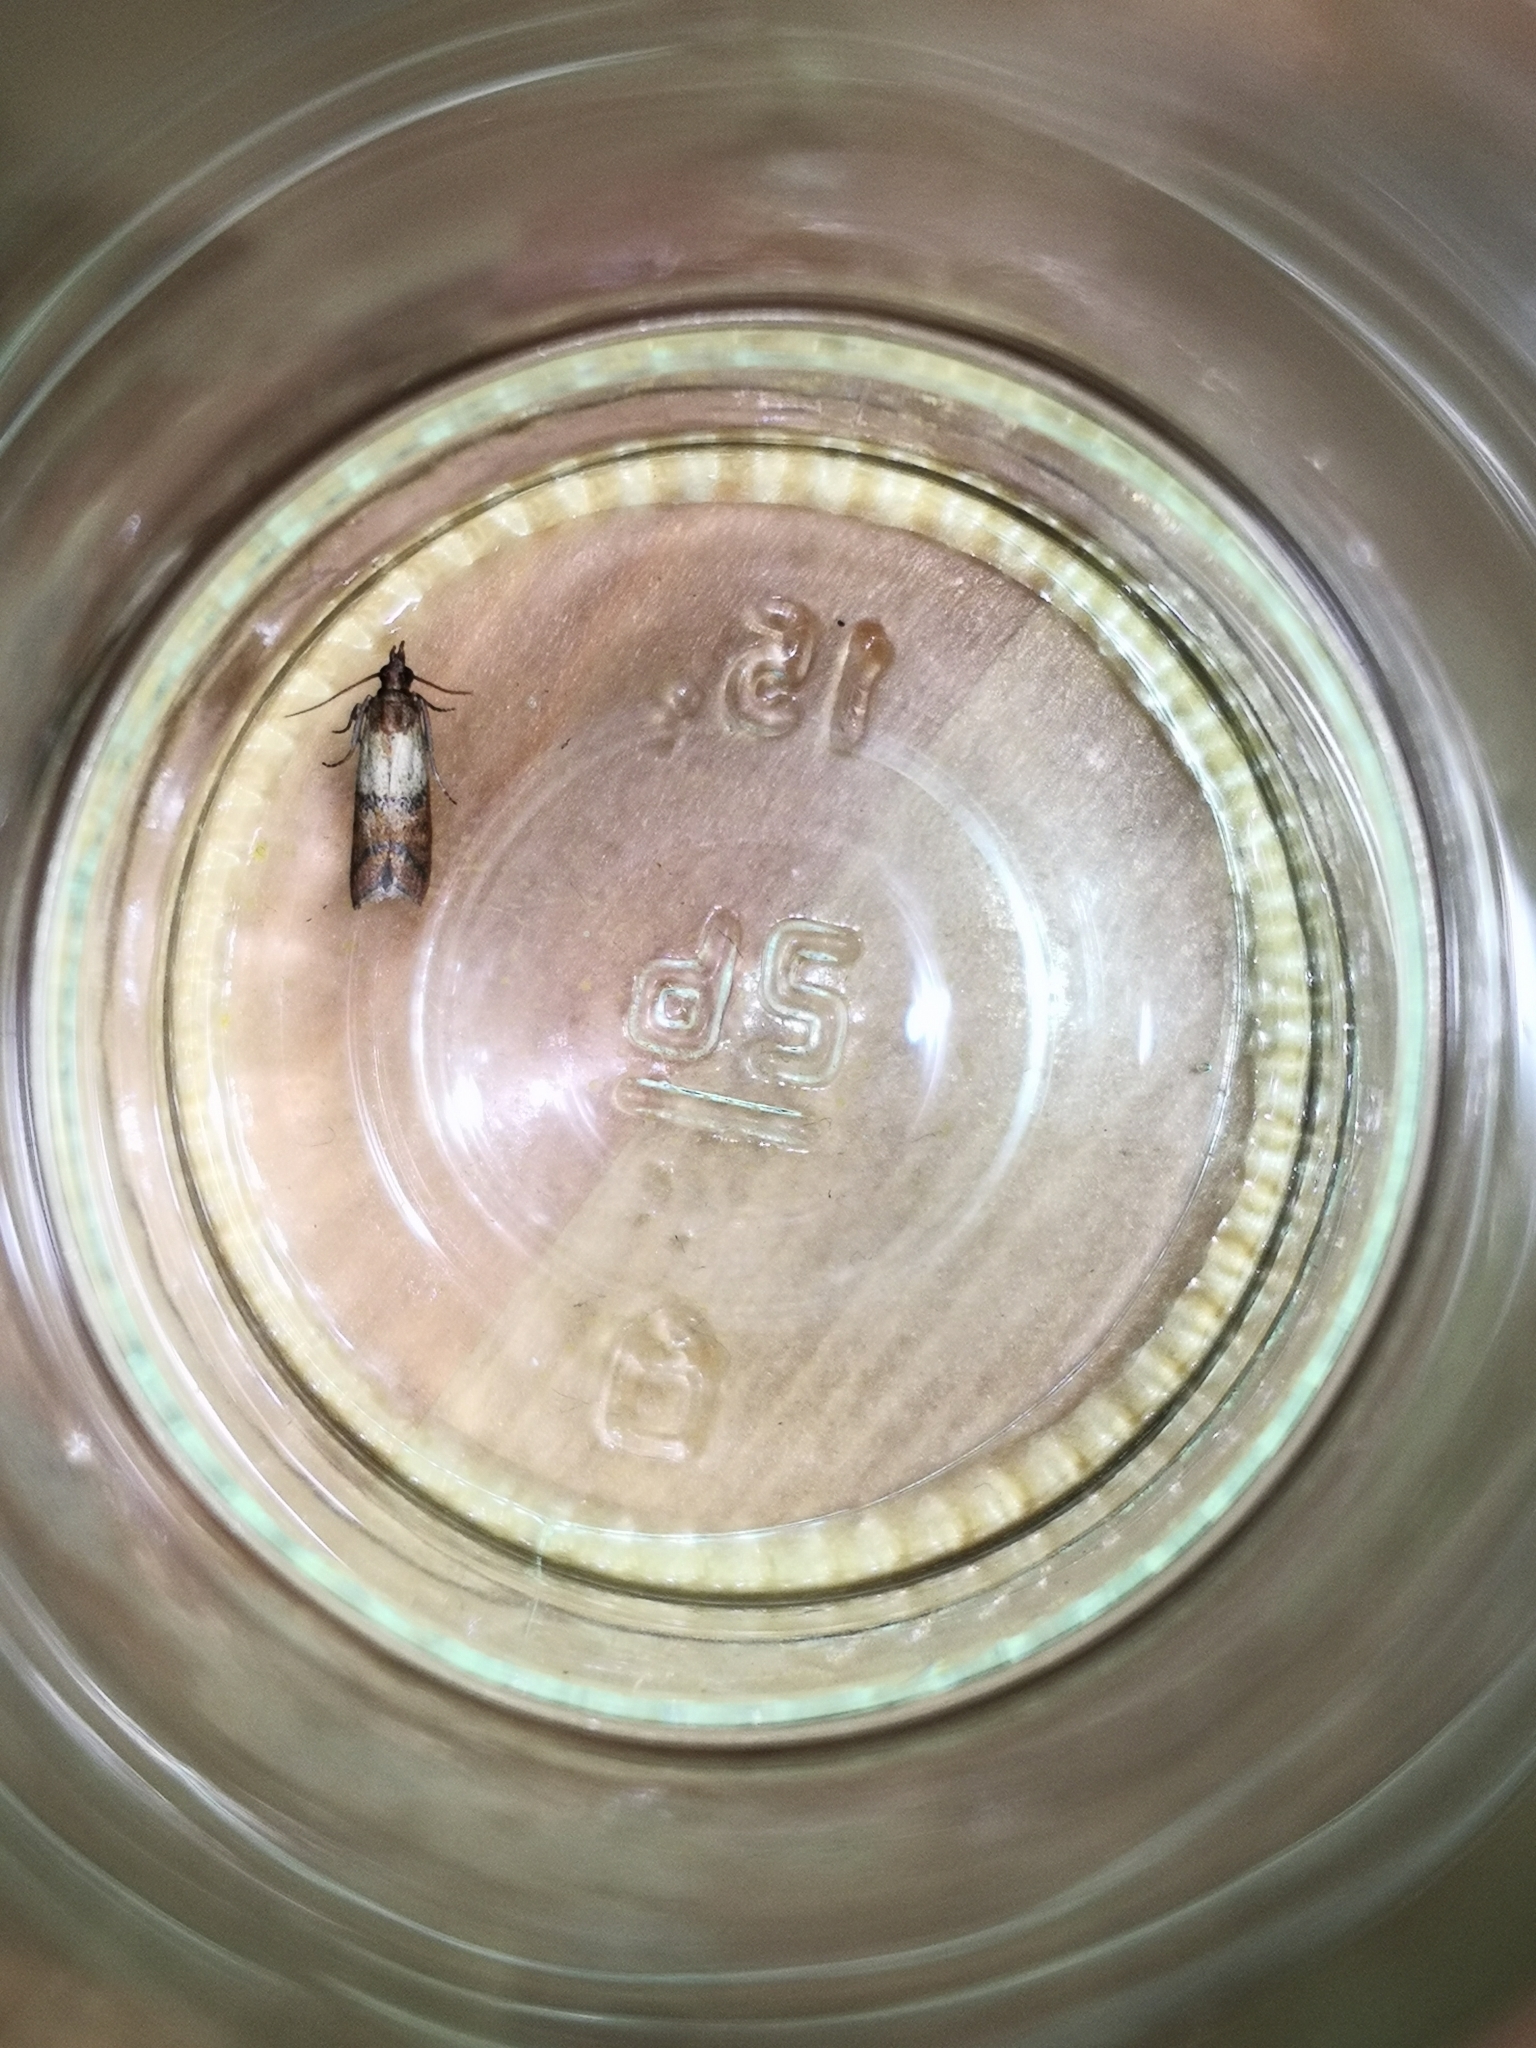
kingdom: Animalia
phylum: Arthropoda
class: Insecta
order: Lepidoptera
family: Pyralidae
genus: Plodia
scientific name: Plodia interpunctella
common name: Indian meal moth
